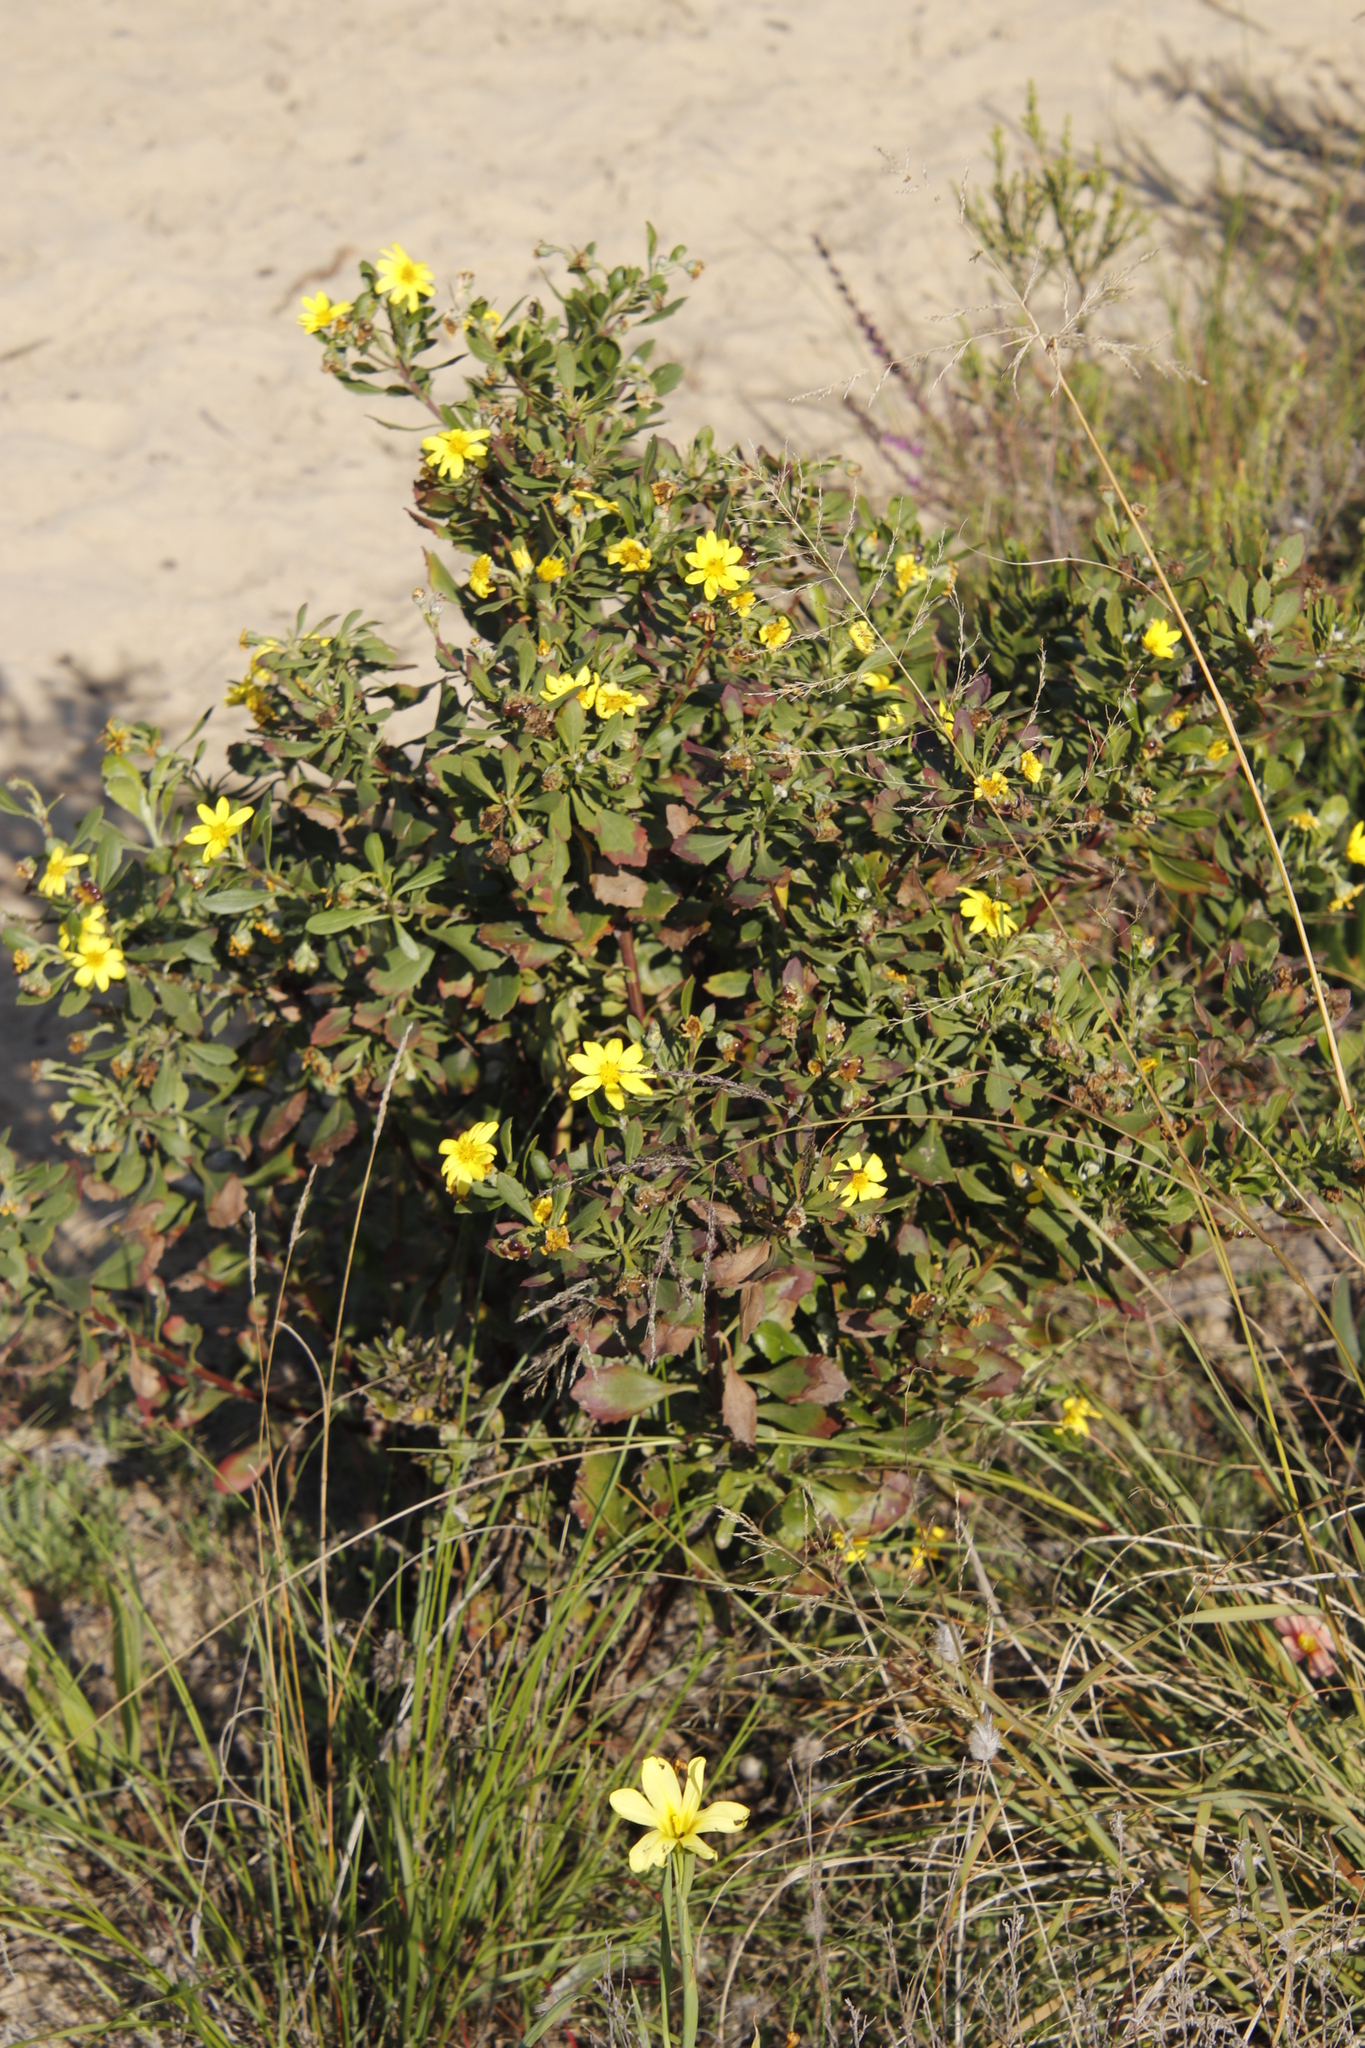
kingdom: Plantae
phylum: Tracheophyta
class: Magnoliopsida
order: Asterales
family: Asteraceae
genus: Osteospermum
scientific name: Osteospermum moniliferum
